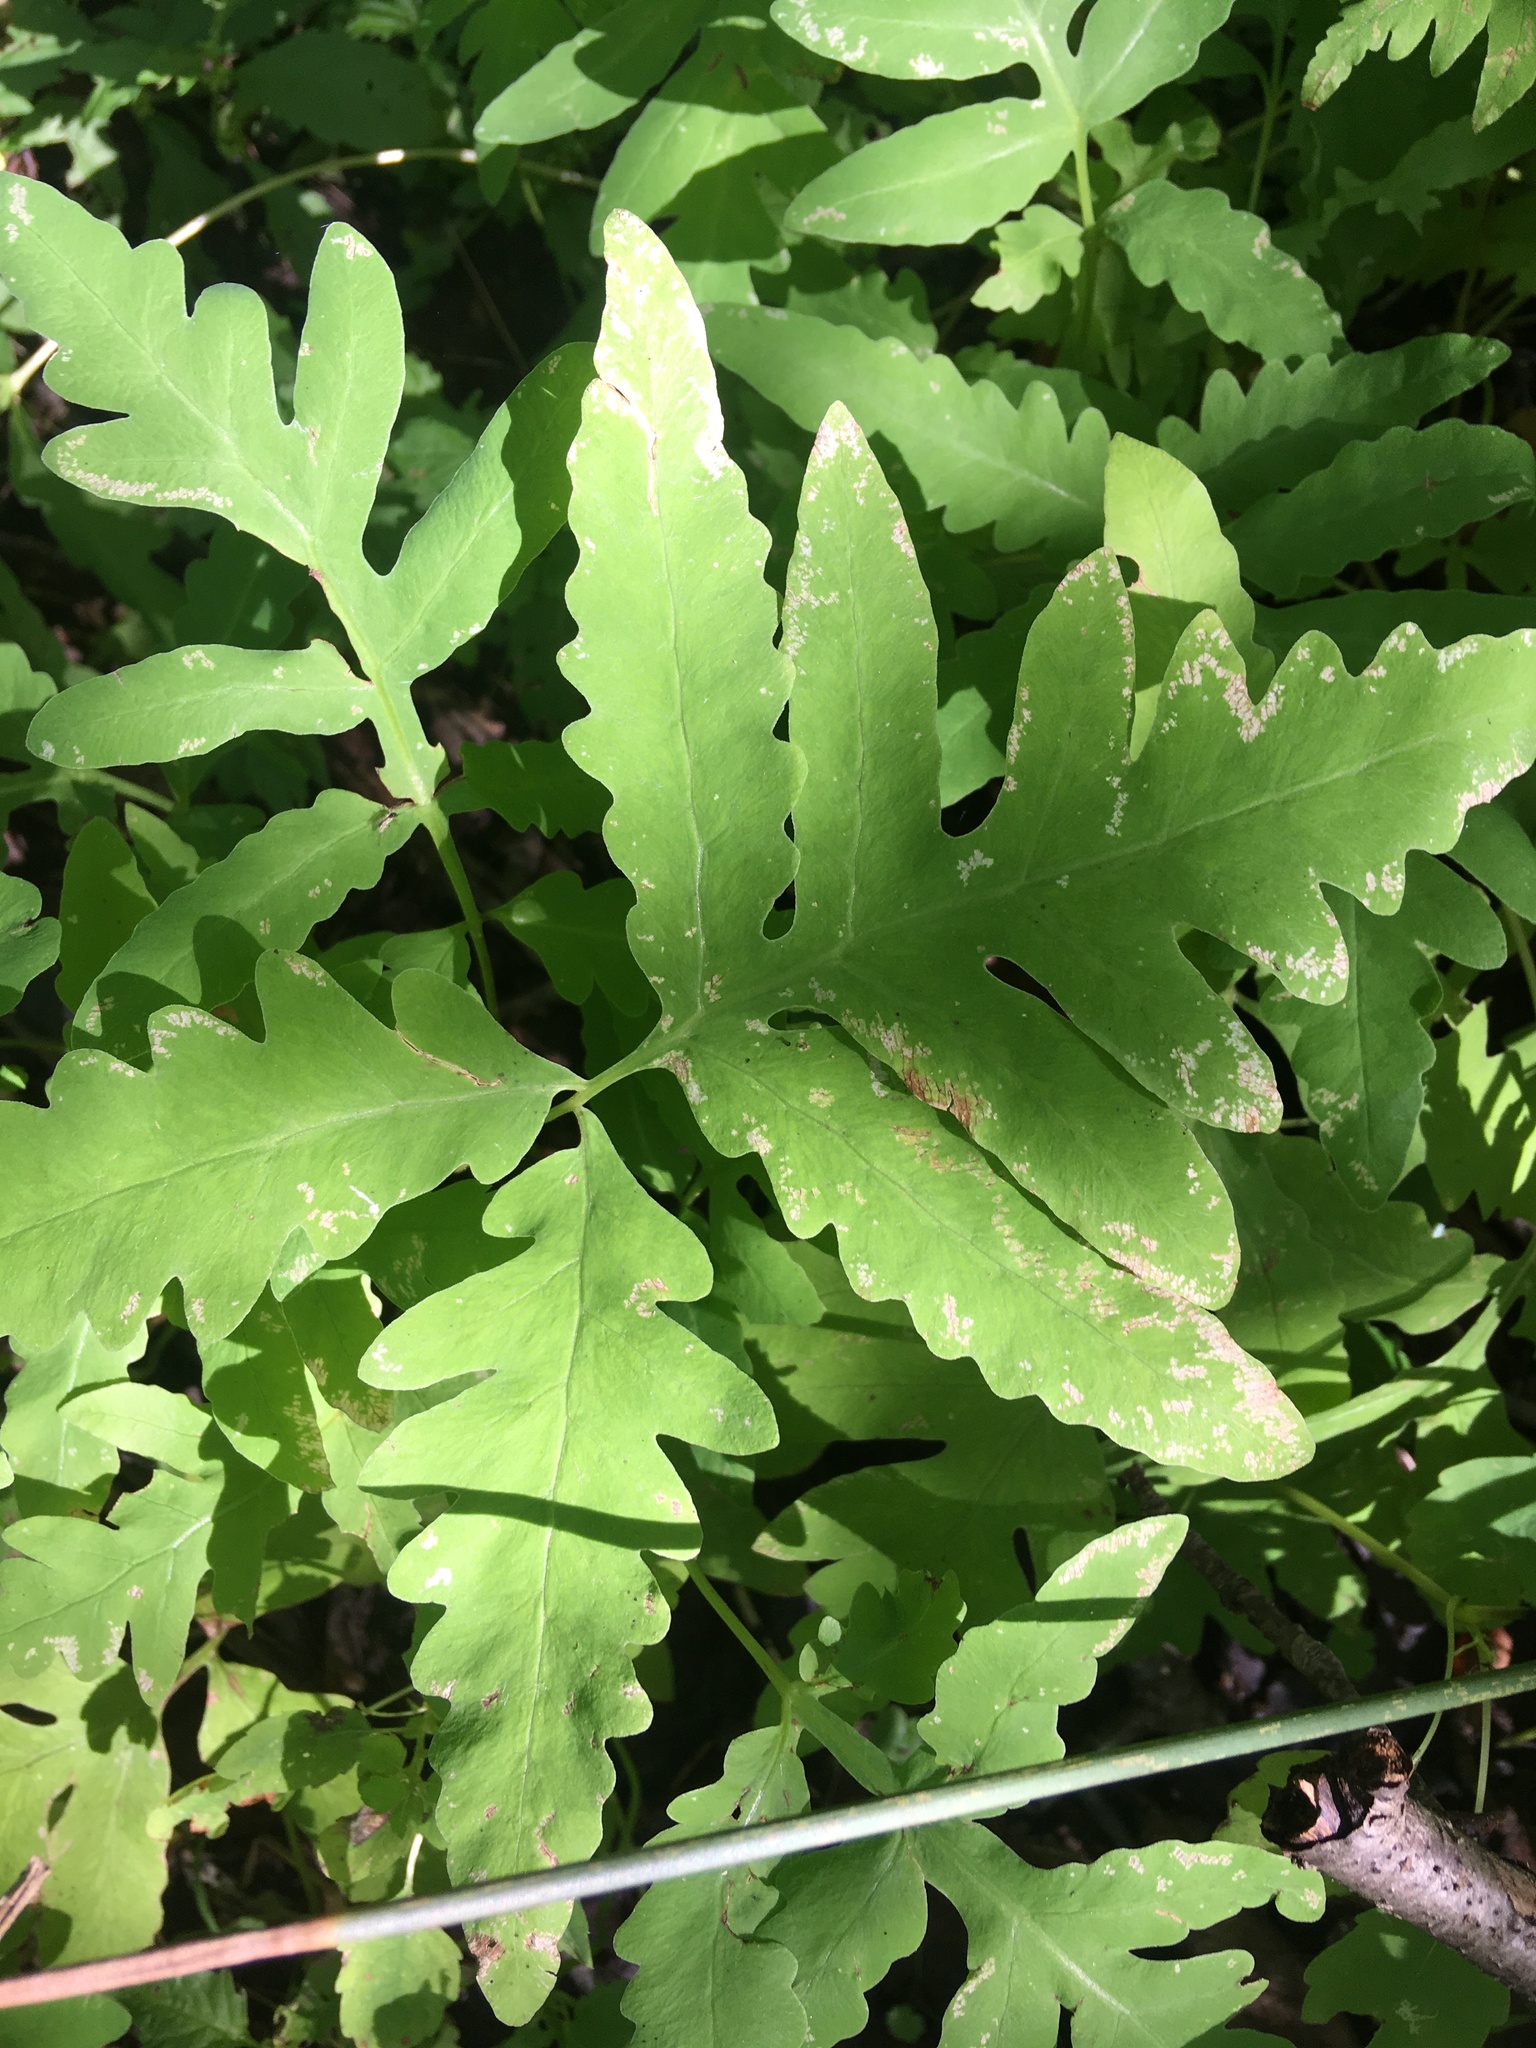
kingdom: Plantae
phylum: Tracheophyta
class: Polypodiopsida
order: Polypodiales
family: Onocleaceae
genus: Onoclea
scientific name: Onoclea sensibilis
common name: Sensitive fern
